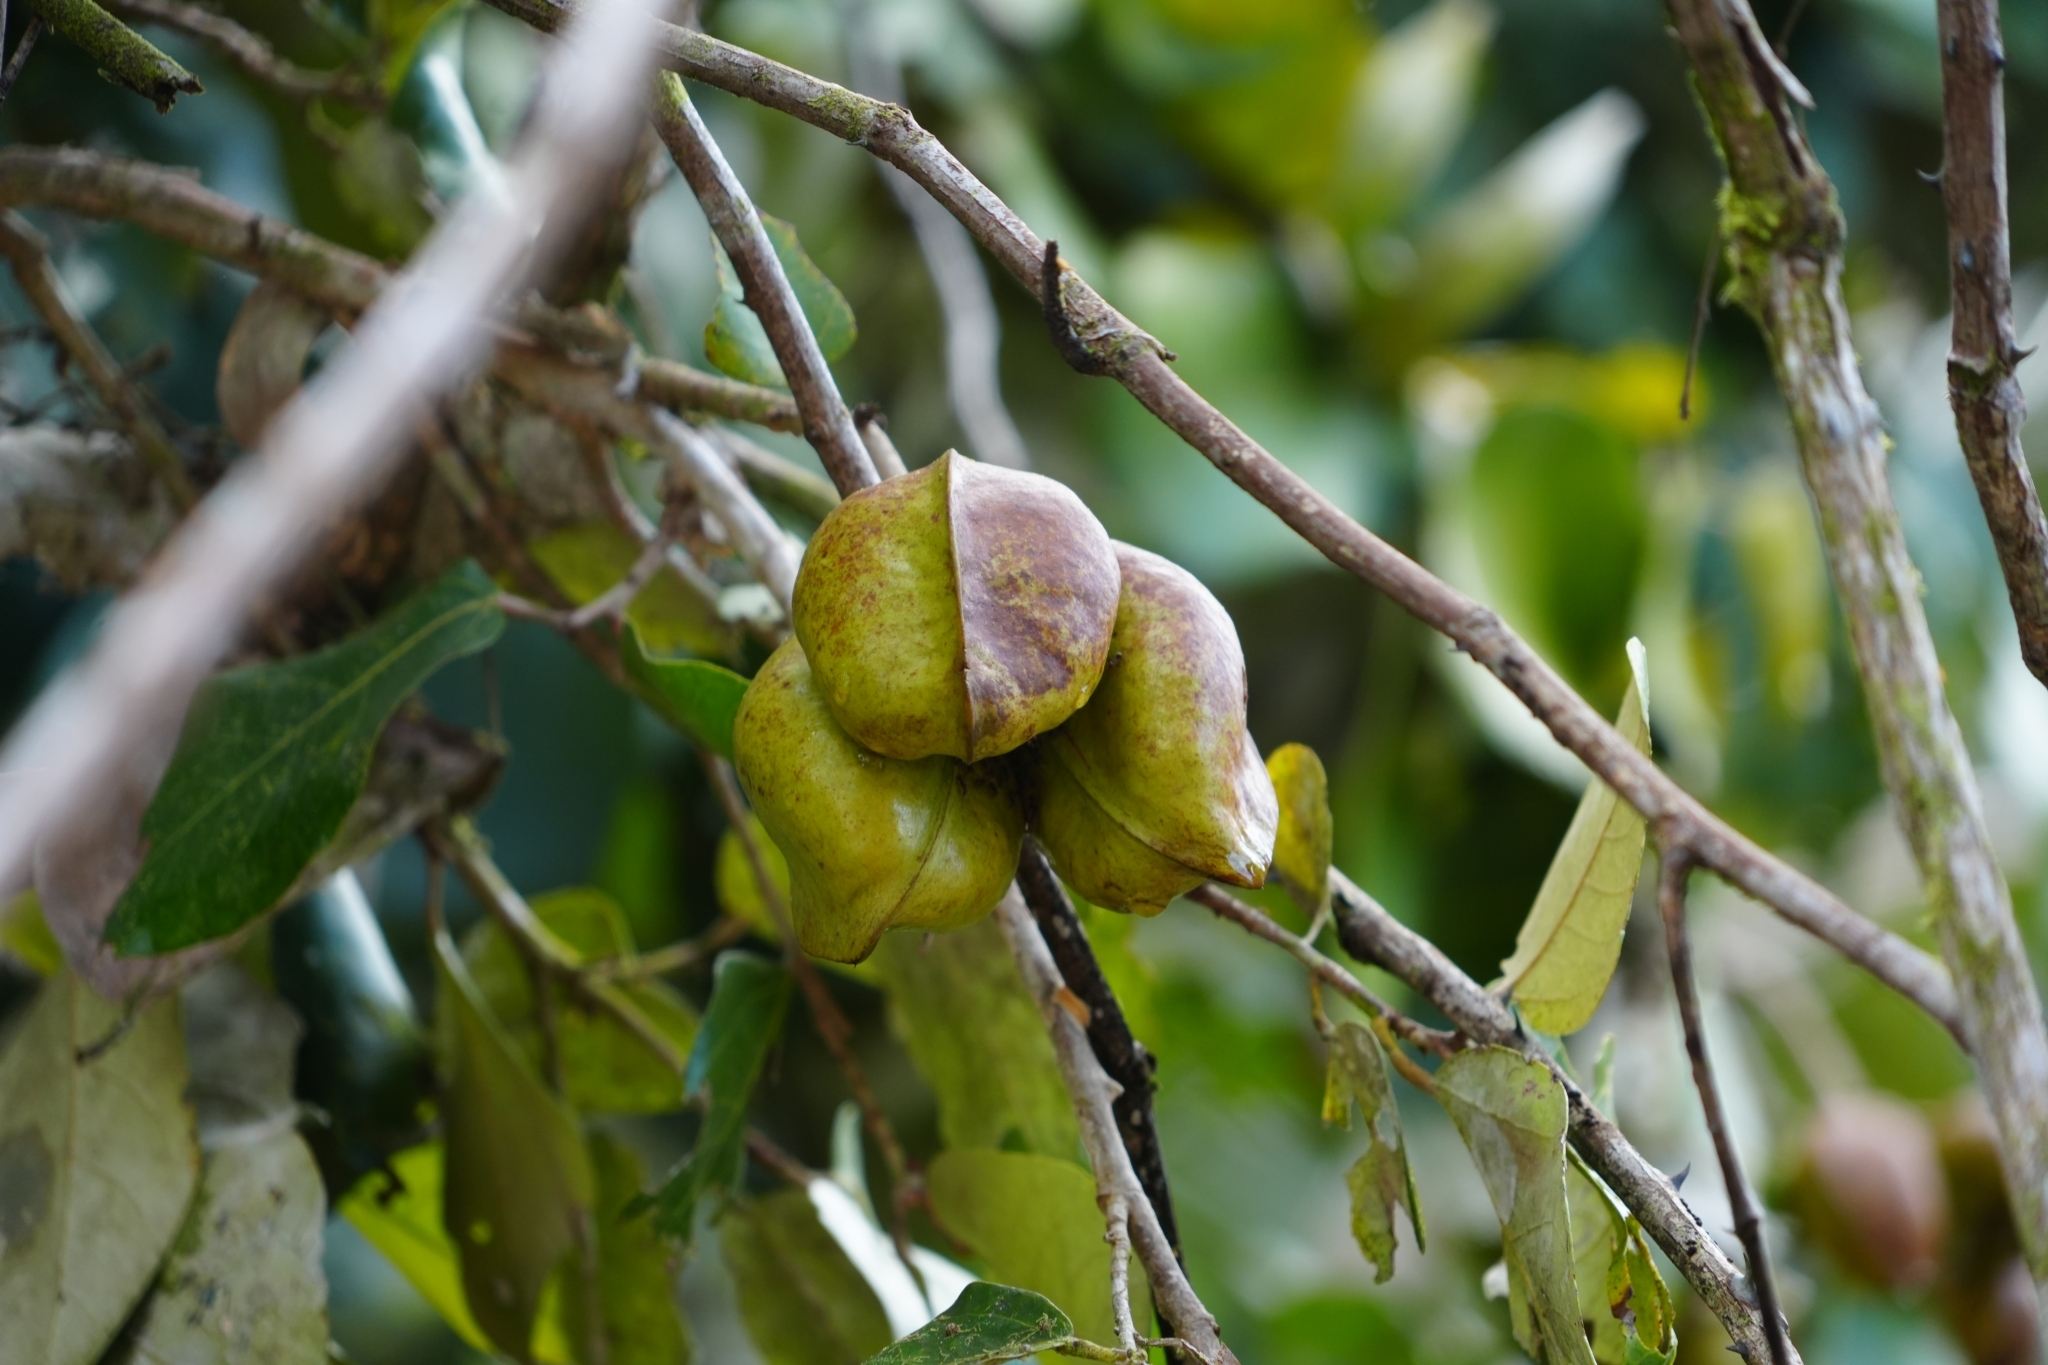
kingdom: Plantae
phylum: Tracheophyta
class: Magnoliopsida
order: Malvales
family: Malvaceae
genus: Heritiera
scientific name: Heritiera littoralis
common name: Looking-glass mangrove
